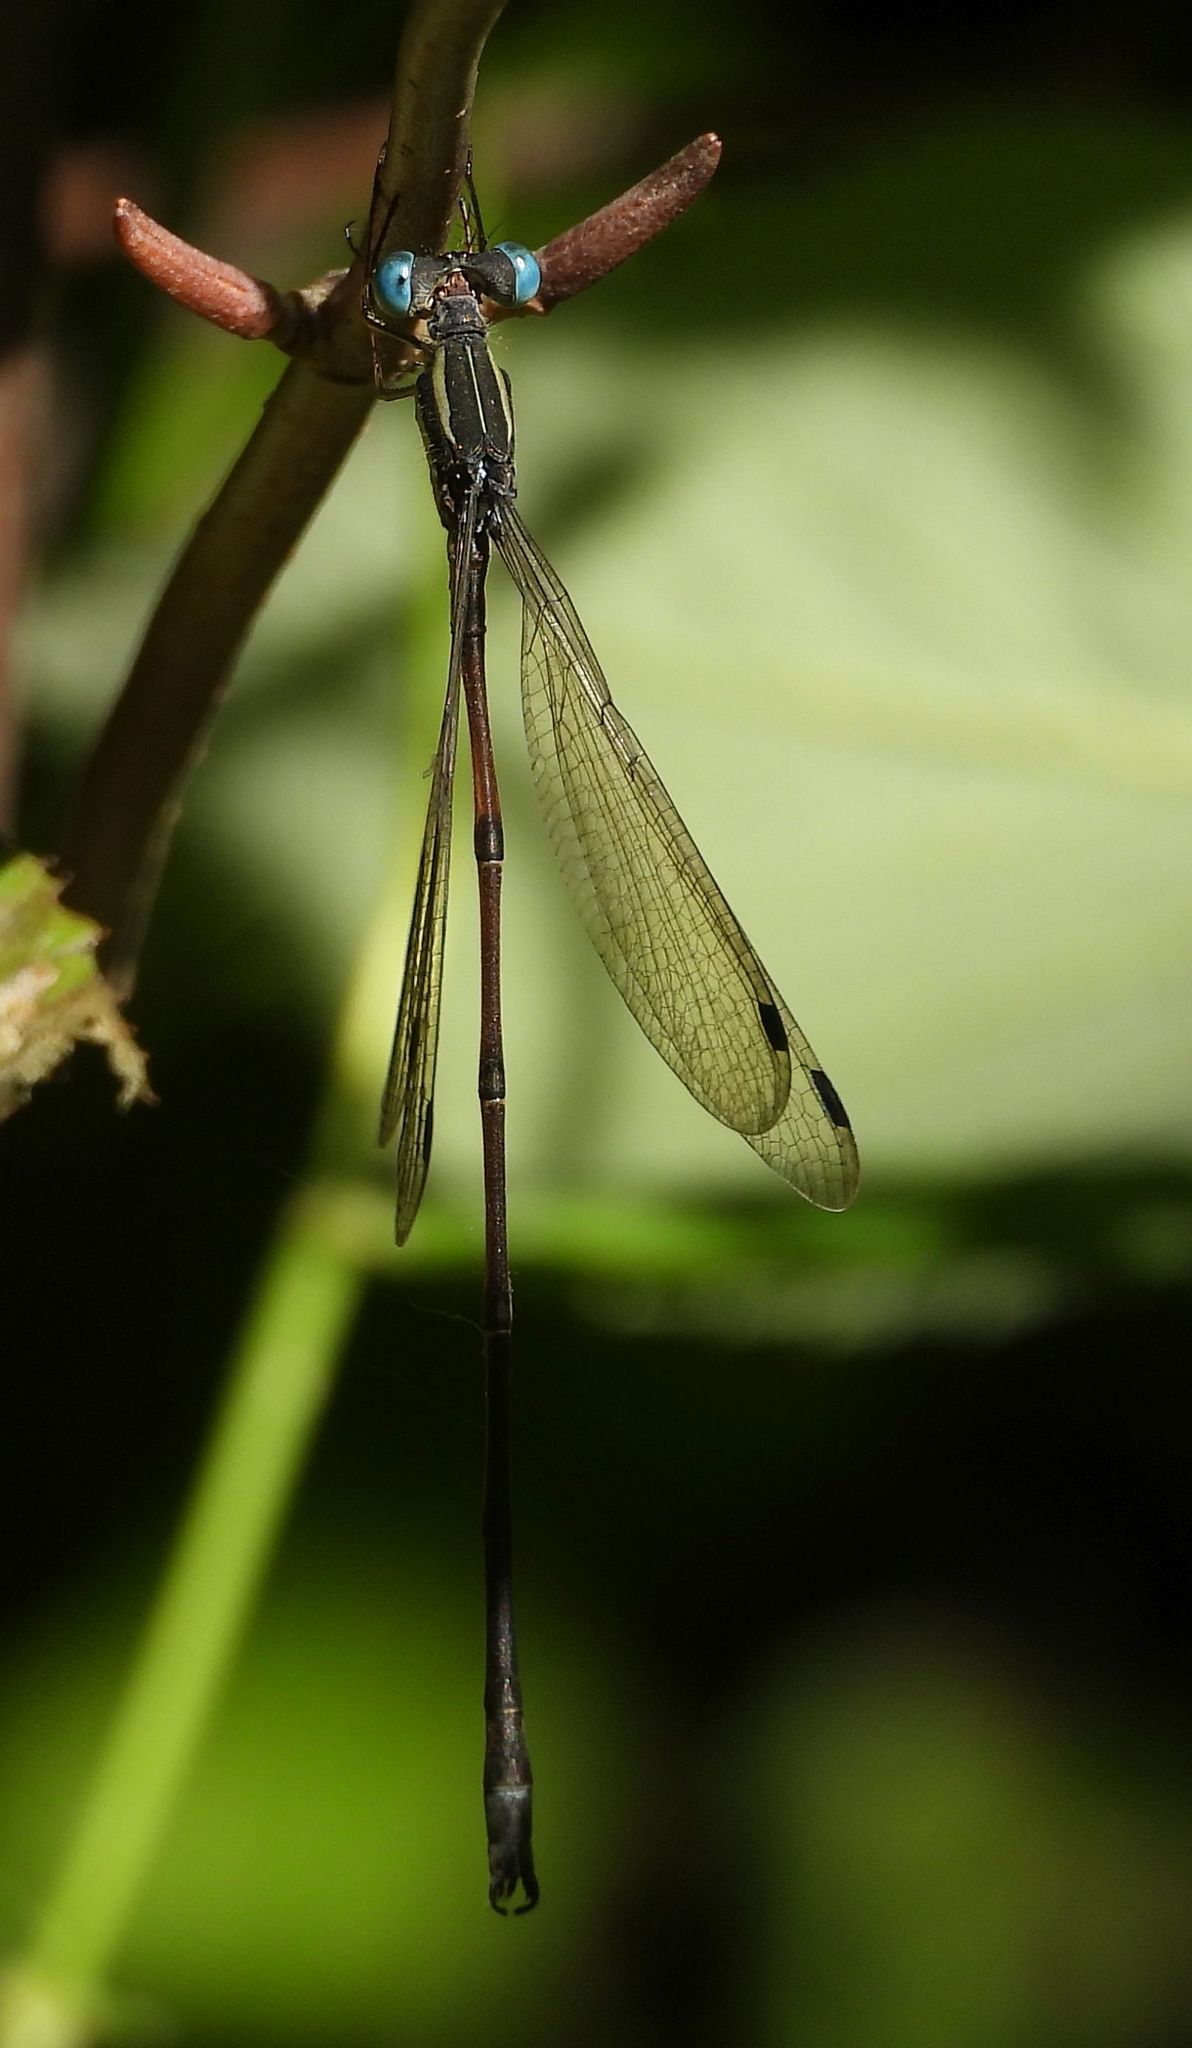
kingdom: Animalia
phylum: Arthropoda
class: Insecta
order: Odonata
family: Lestidae
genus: Lestes
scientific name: Lestes rectangularis
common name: Slender spreadwing
